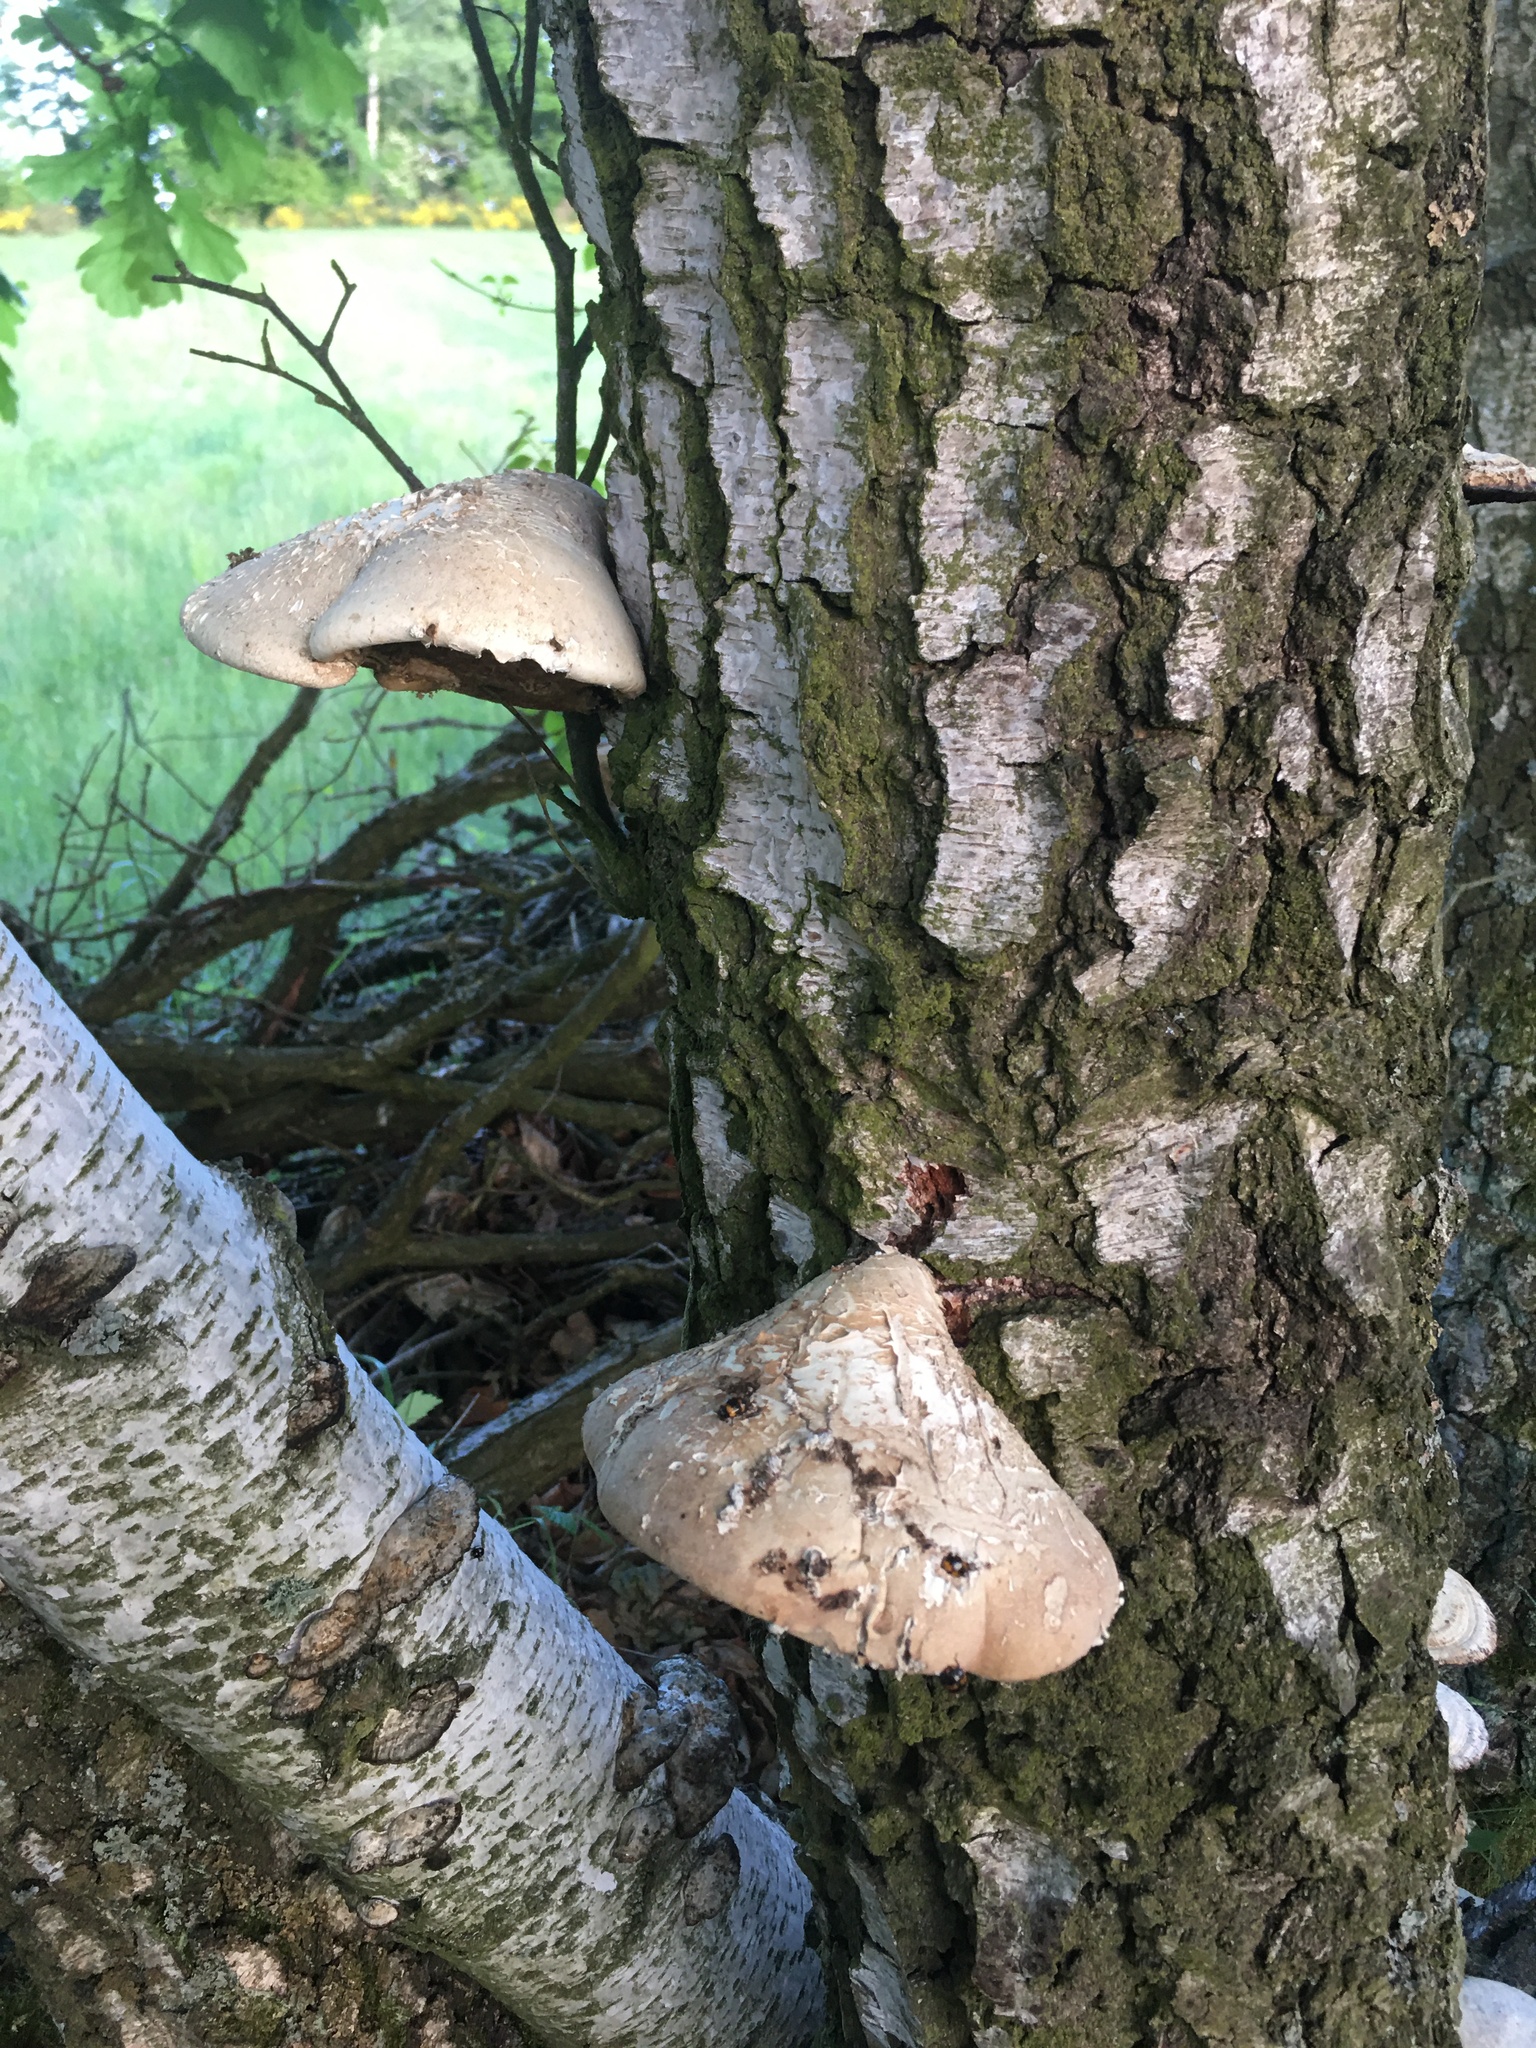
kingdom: Fungi
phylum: Basidiomycota
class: Agaricomycetes
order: Polyporales
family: Fomitopsidaceae
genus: Fomitopsis
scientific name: Fomitopsis betulina
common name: Birch polypore
